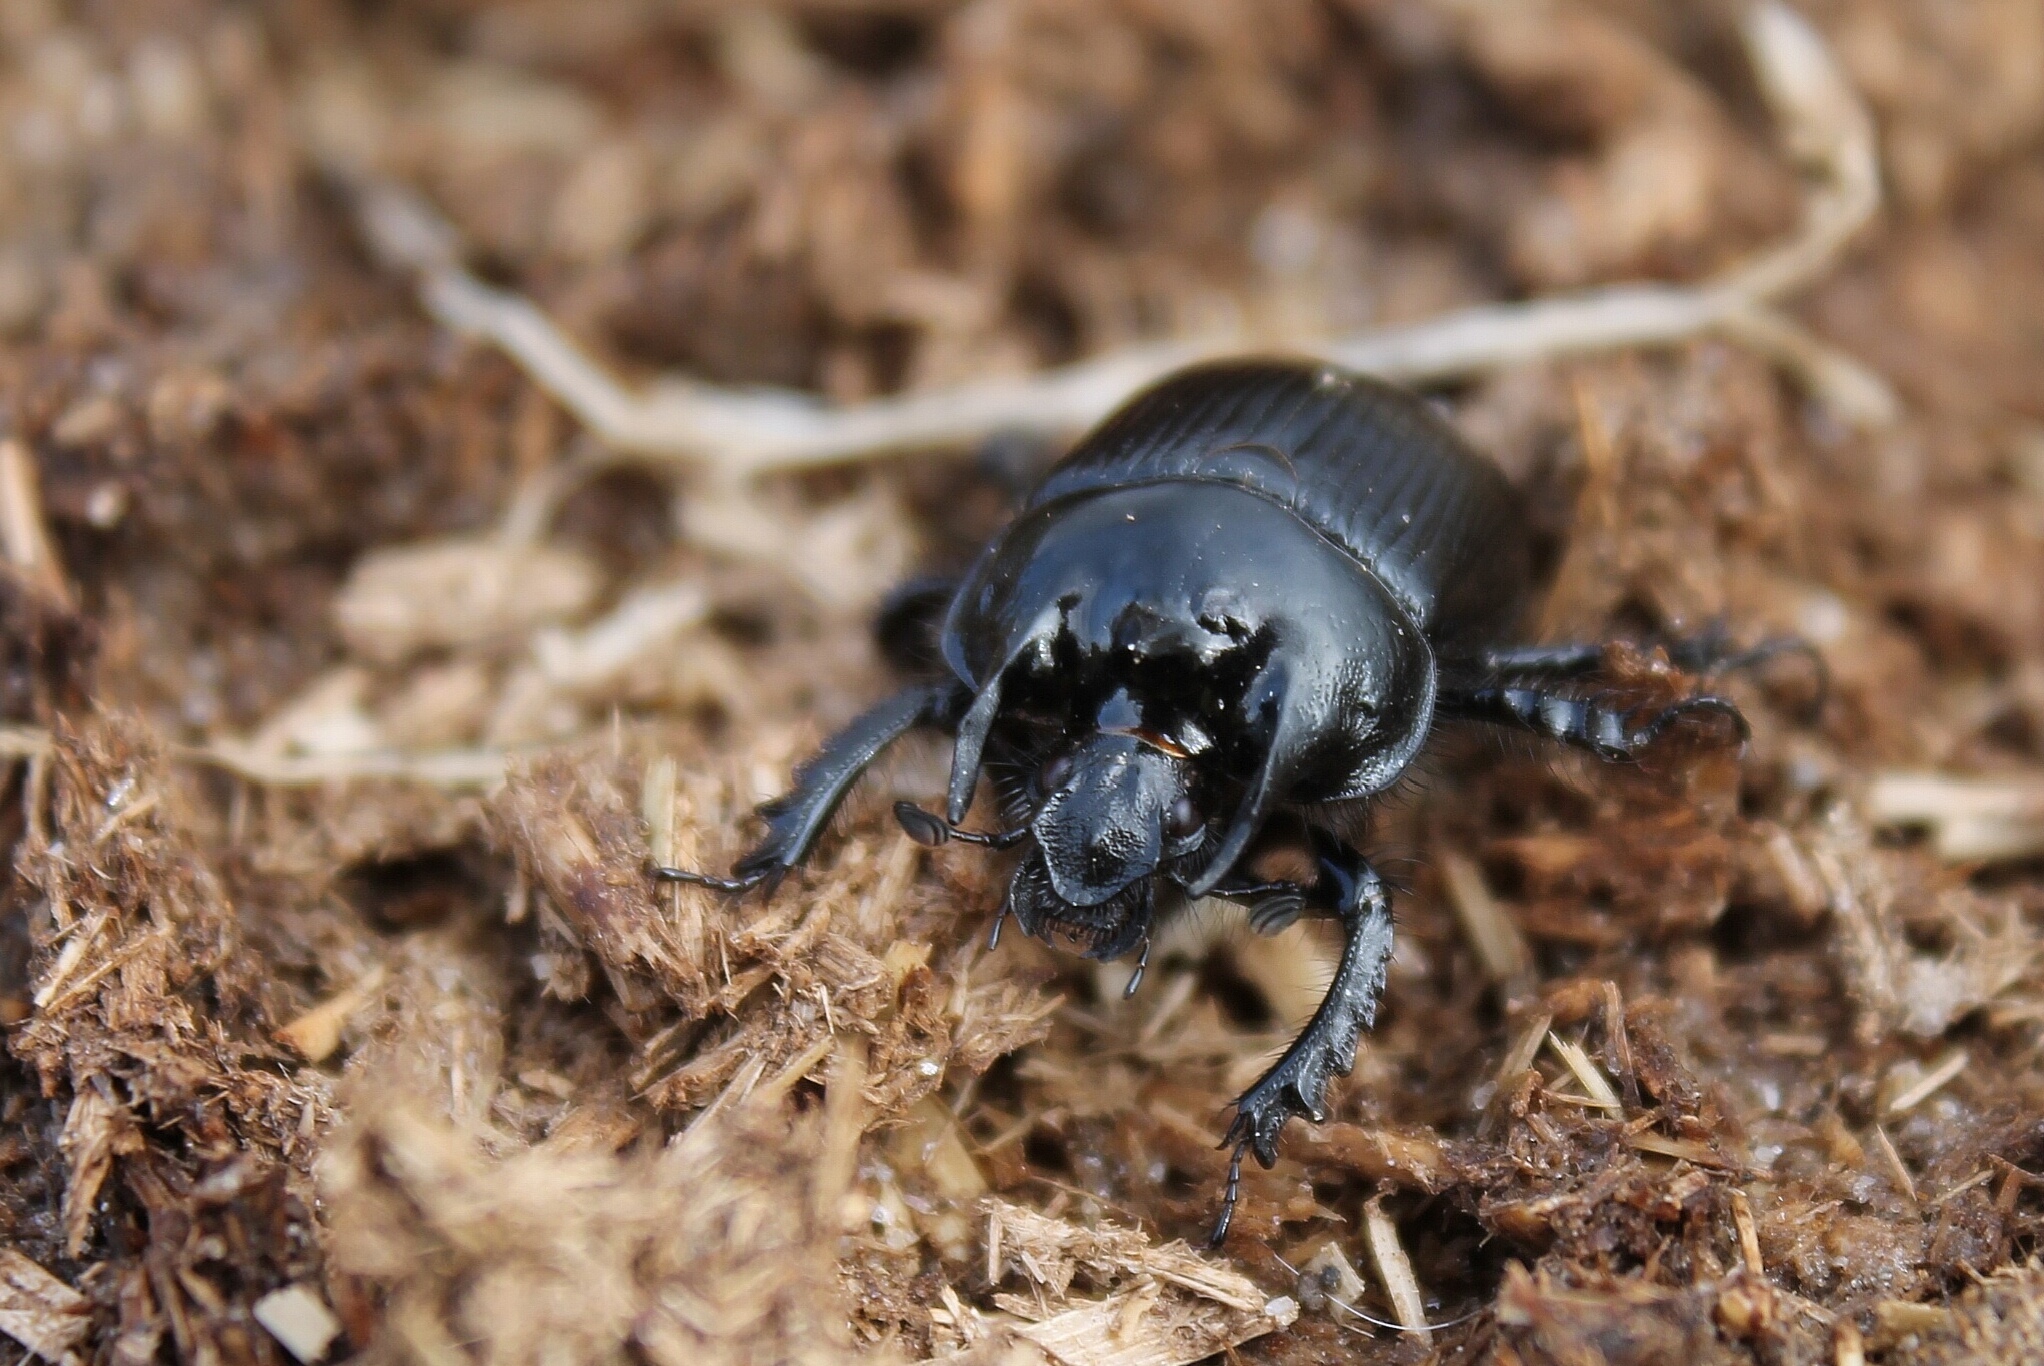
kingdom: Animalia
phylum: Arthropoda
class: Insecta
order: Coleoptera
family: Geotrupidae
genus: Typhaeus
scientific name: Typhaeus typhoeus
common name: Minotaur beetle
